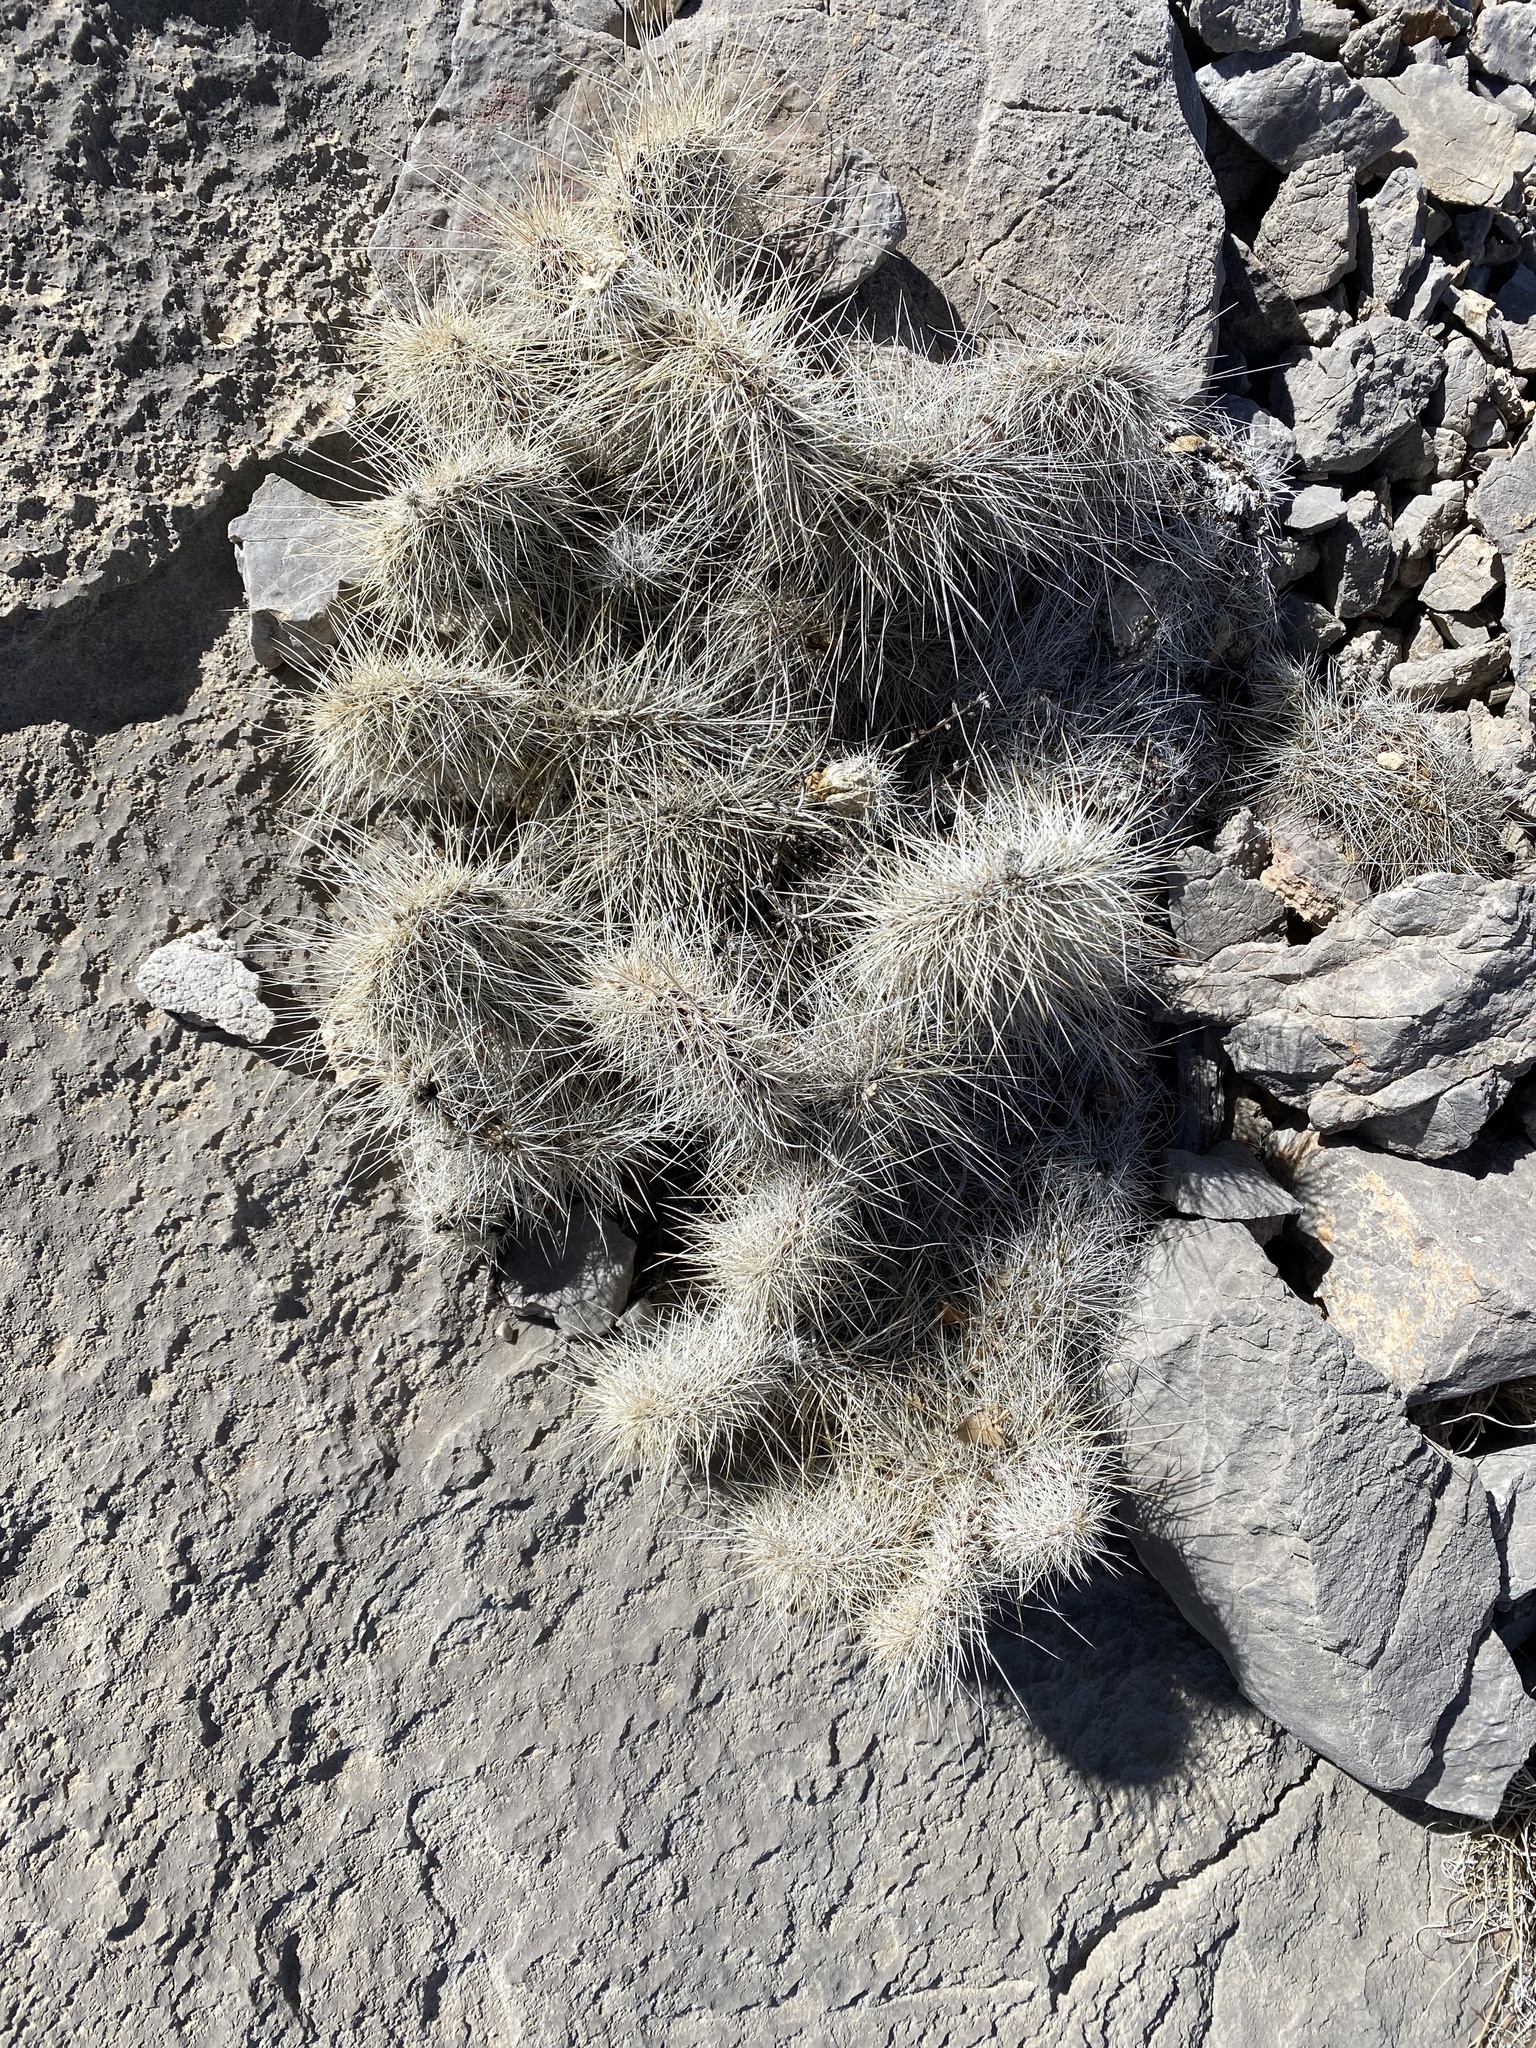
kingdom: Plantae
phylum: Tracheophyta
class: Magnoliopsida
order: Caryophyllales
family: Cactaceae
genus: Opuntia
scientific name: Opuntia polyacantha
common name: Plains prickly-pear
